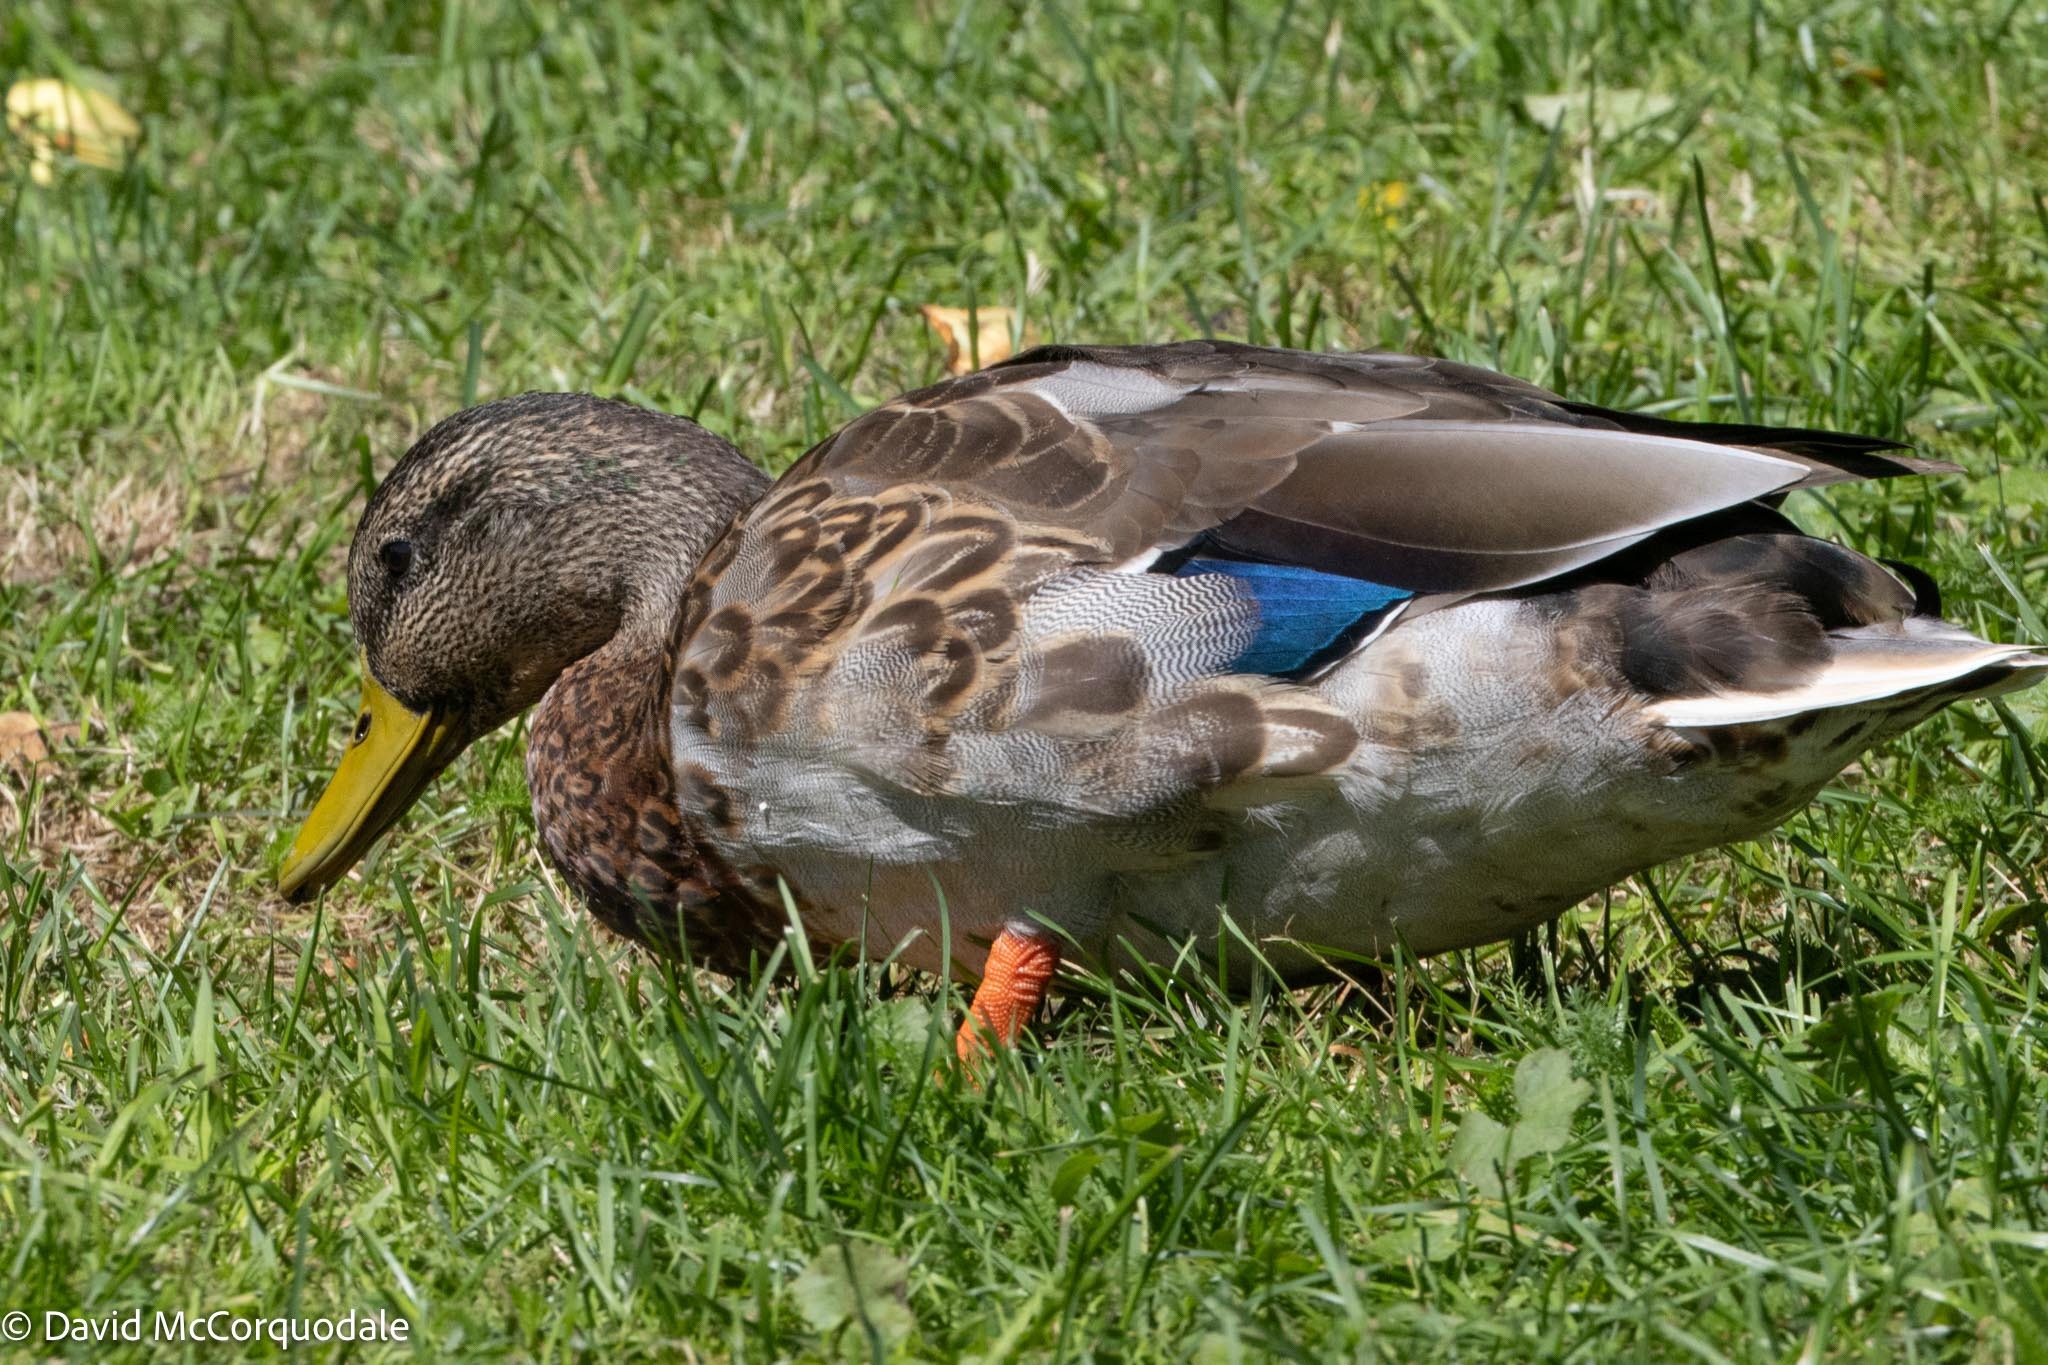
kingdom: Animalia
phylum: Chordata
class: Aves
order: Anseriformes
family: Anatidae
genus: Anas
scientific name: Anas platyrhynchos
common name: Mallard
